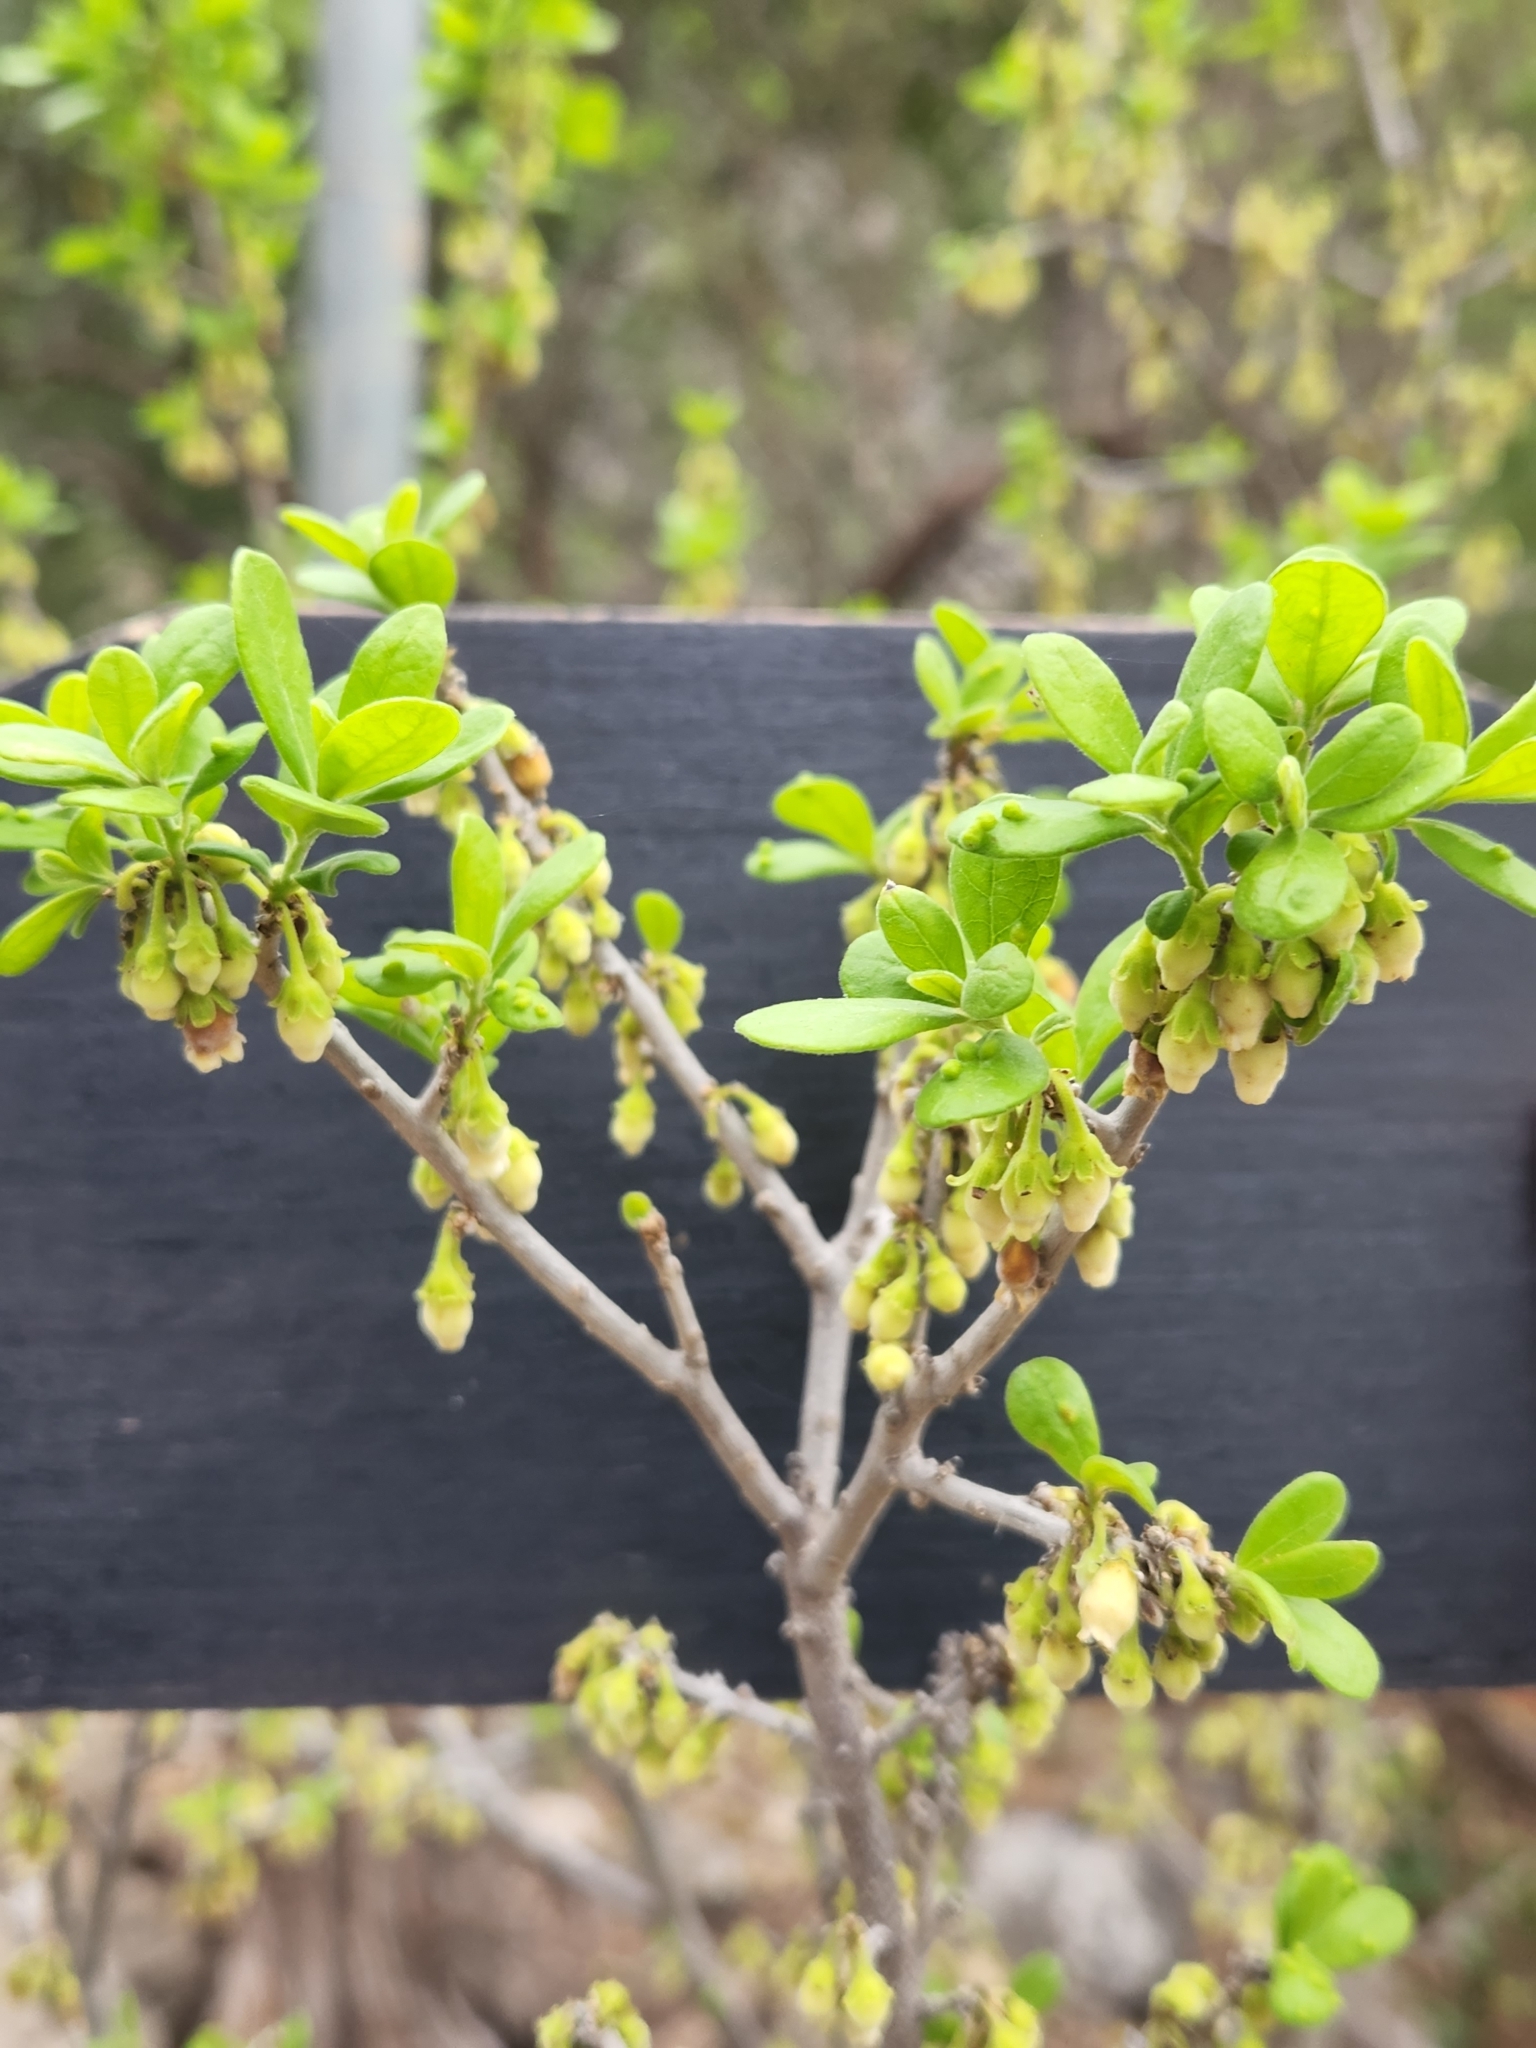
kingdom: Plantae
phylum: Tracheophyta
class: Magnoliopsida
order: Ericales
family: Ebenaceae
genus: Diospyros
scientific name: Diospyros texana
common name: Texas persimmon
